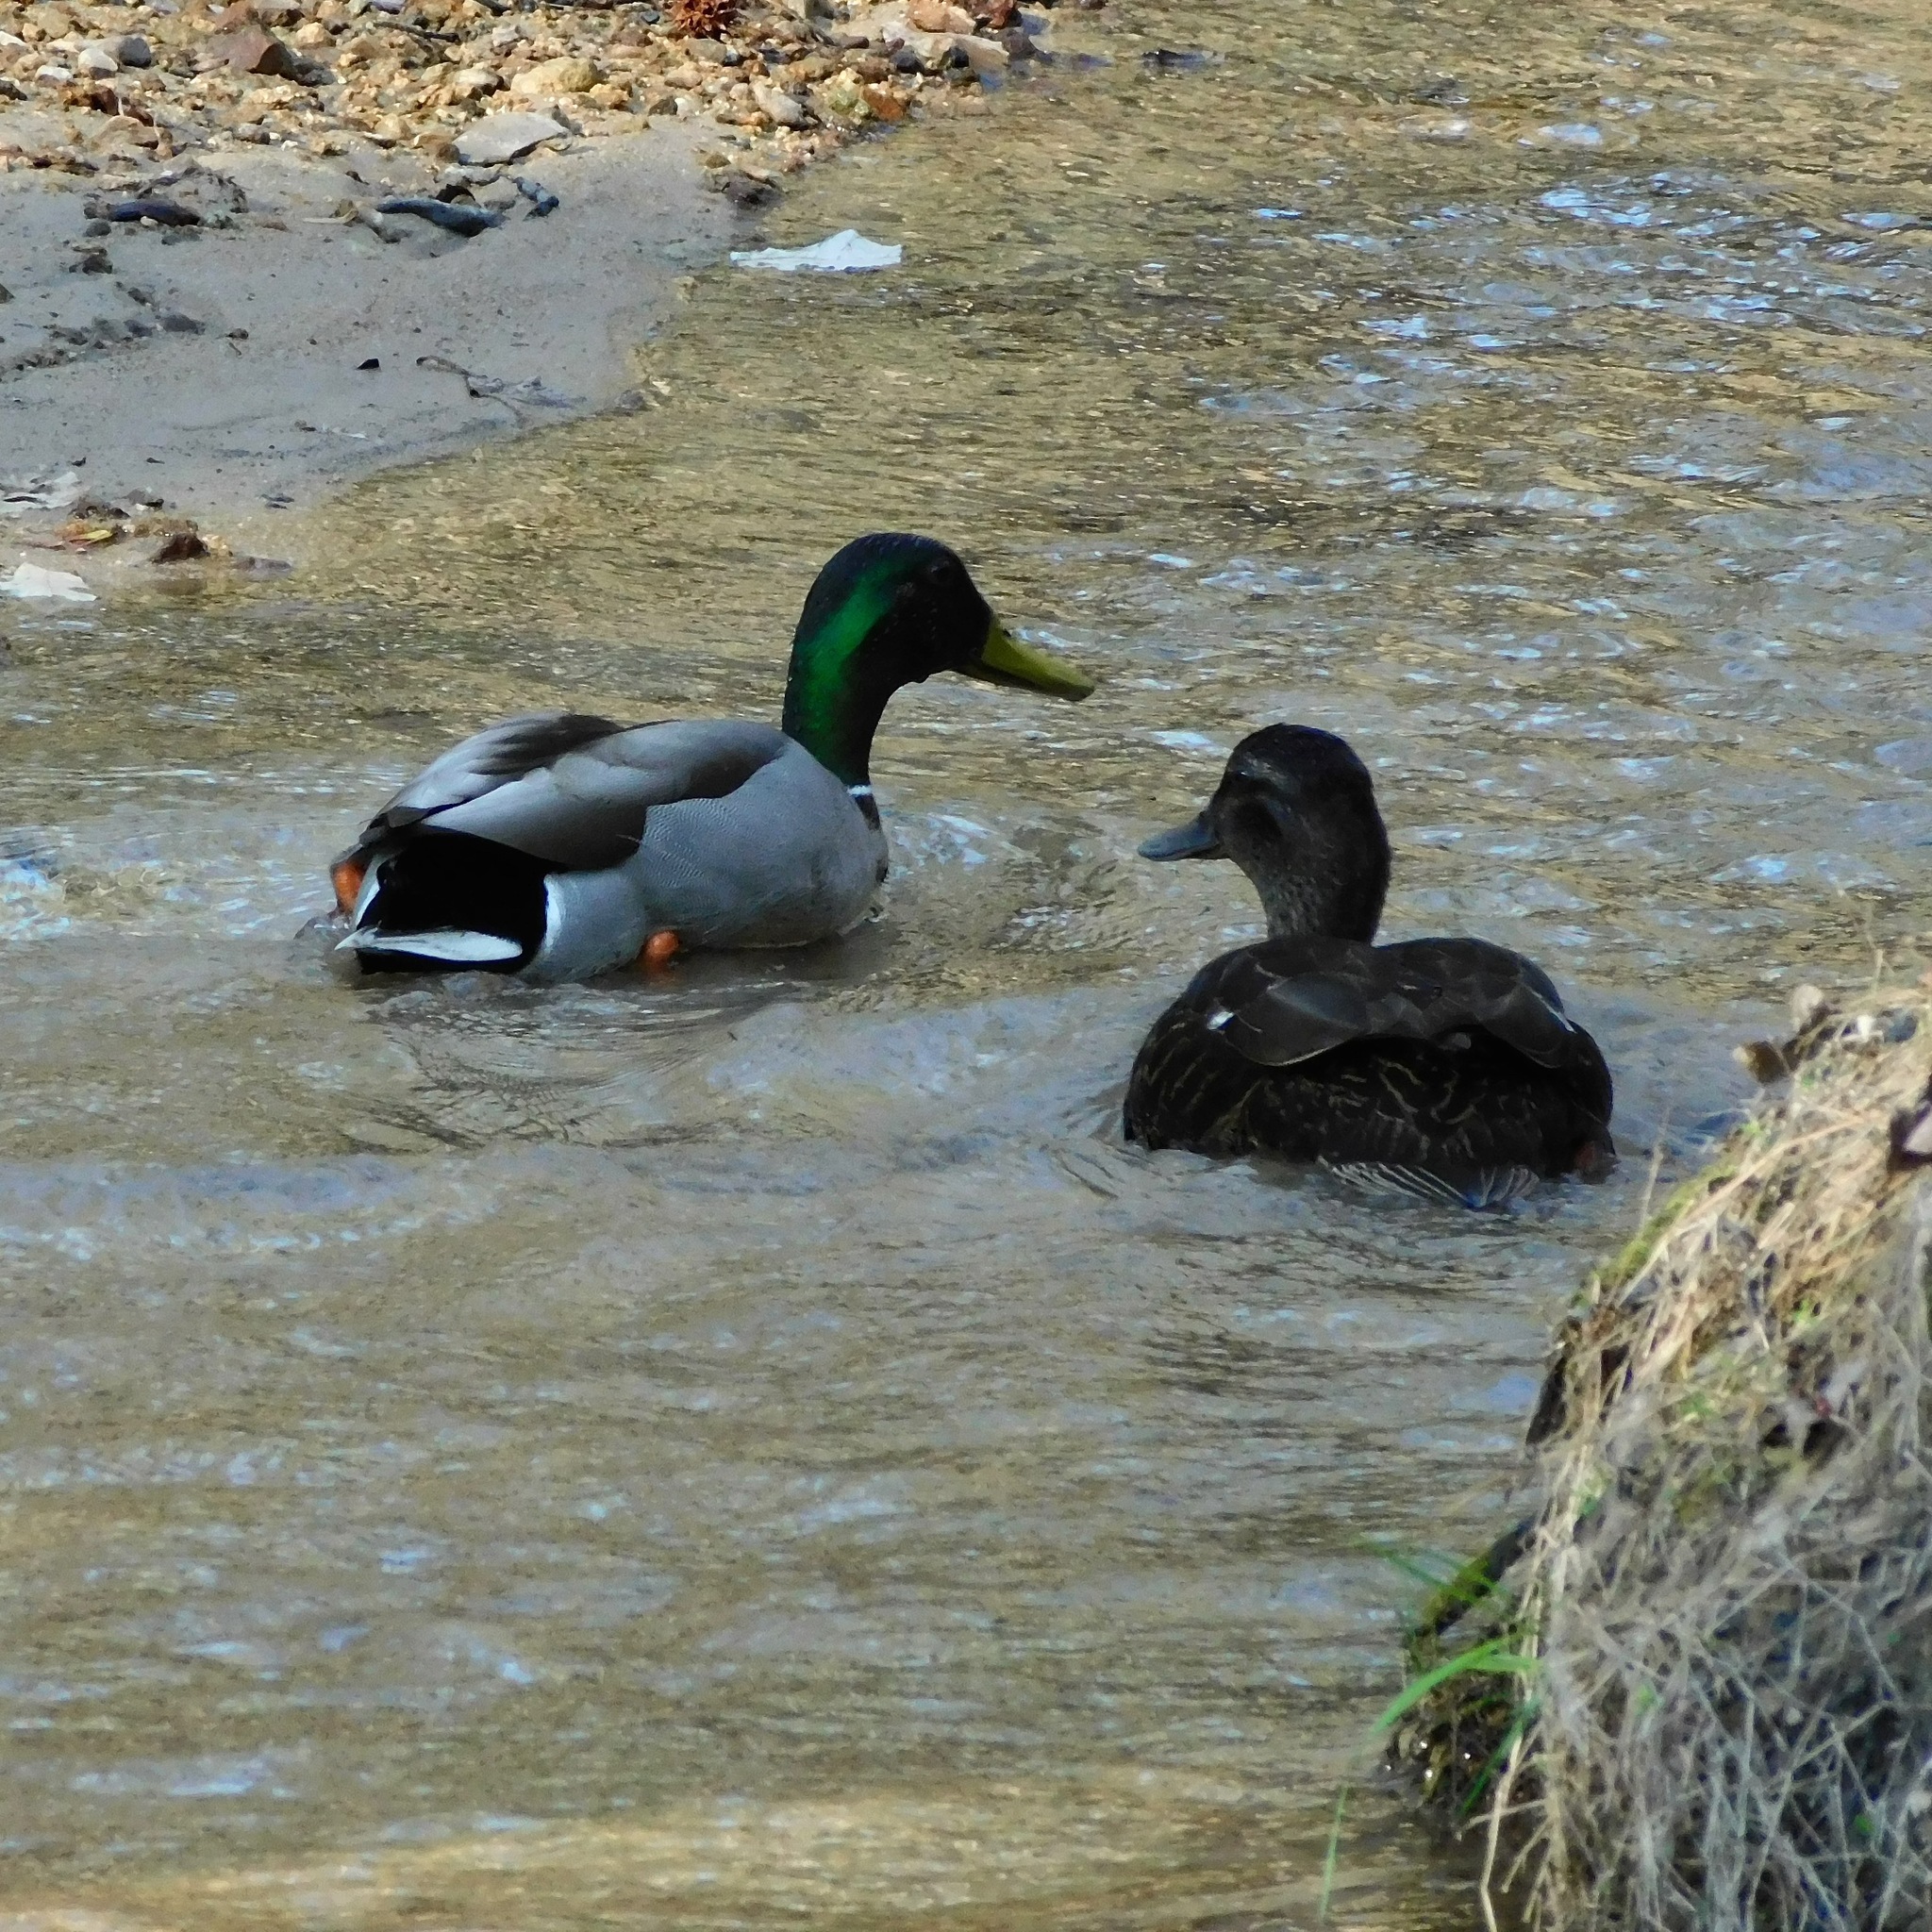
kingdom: Animalia
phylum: Chordata
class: Aves
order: Anseriformes
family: Anatidae
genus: Anas
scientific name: Anas platyrhynchos
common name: Mallard
